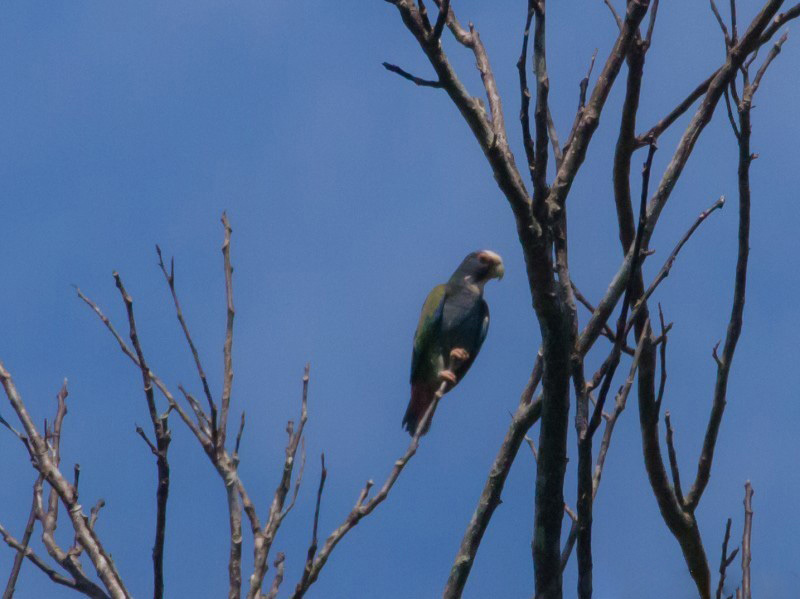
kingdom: Animalia
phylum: Chordata
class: Aves
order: Psittaciformes
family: Psittacidae
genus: Pionus
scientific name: Pionus senilis
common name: White-crowned parrot
